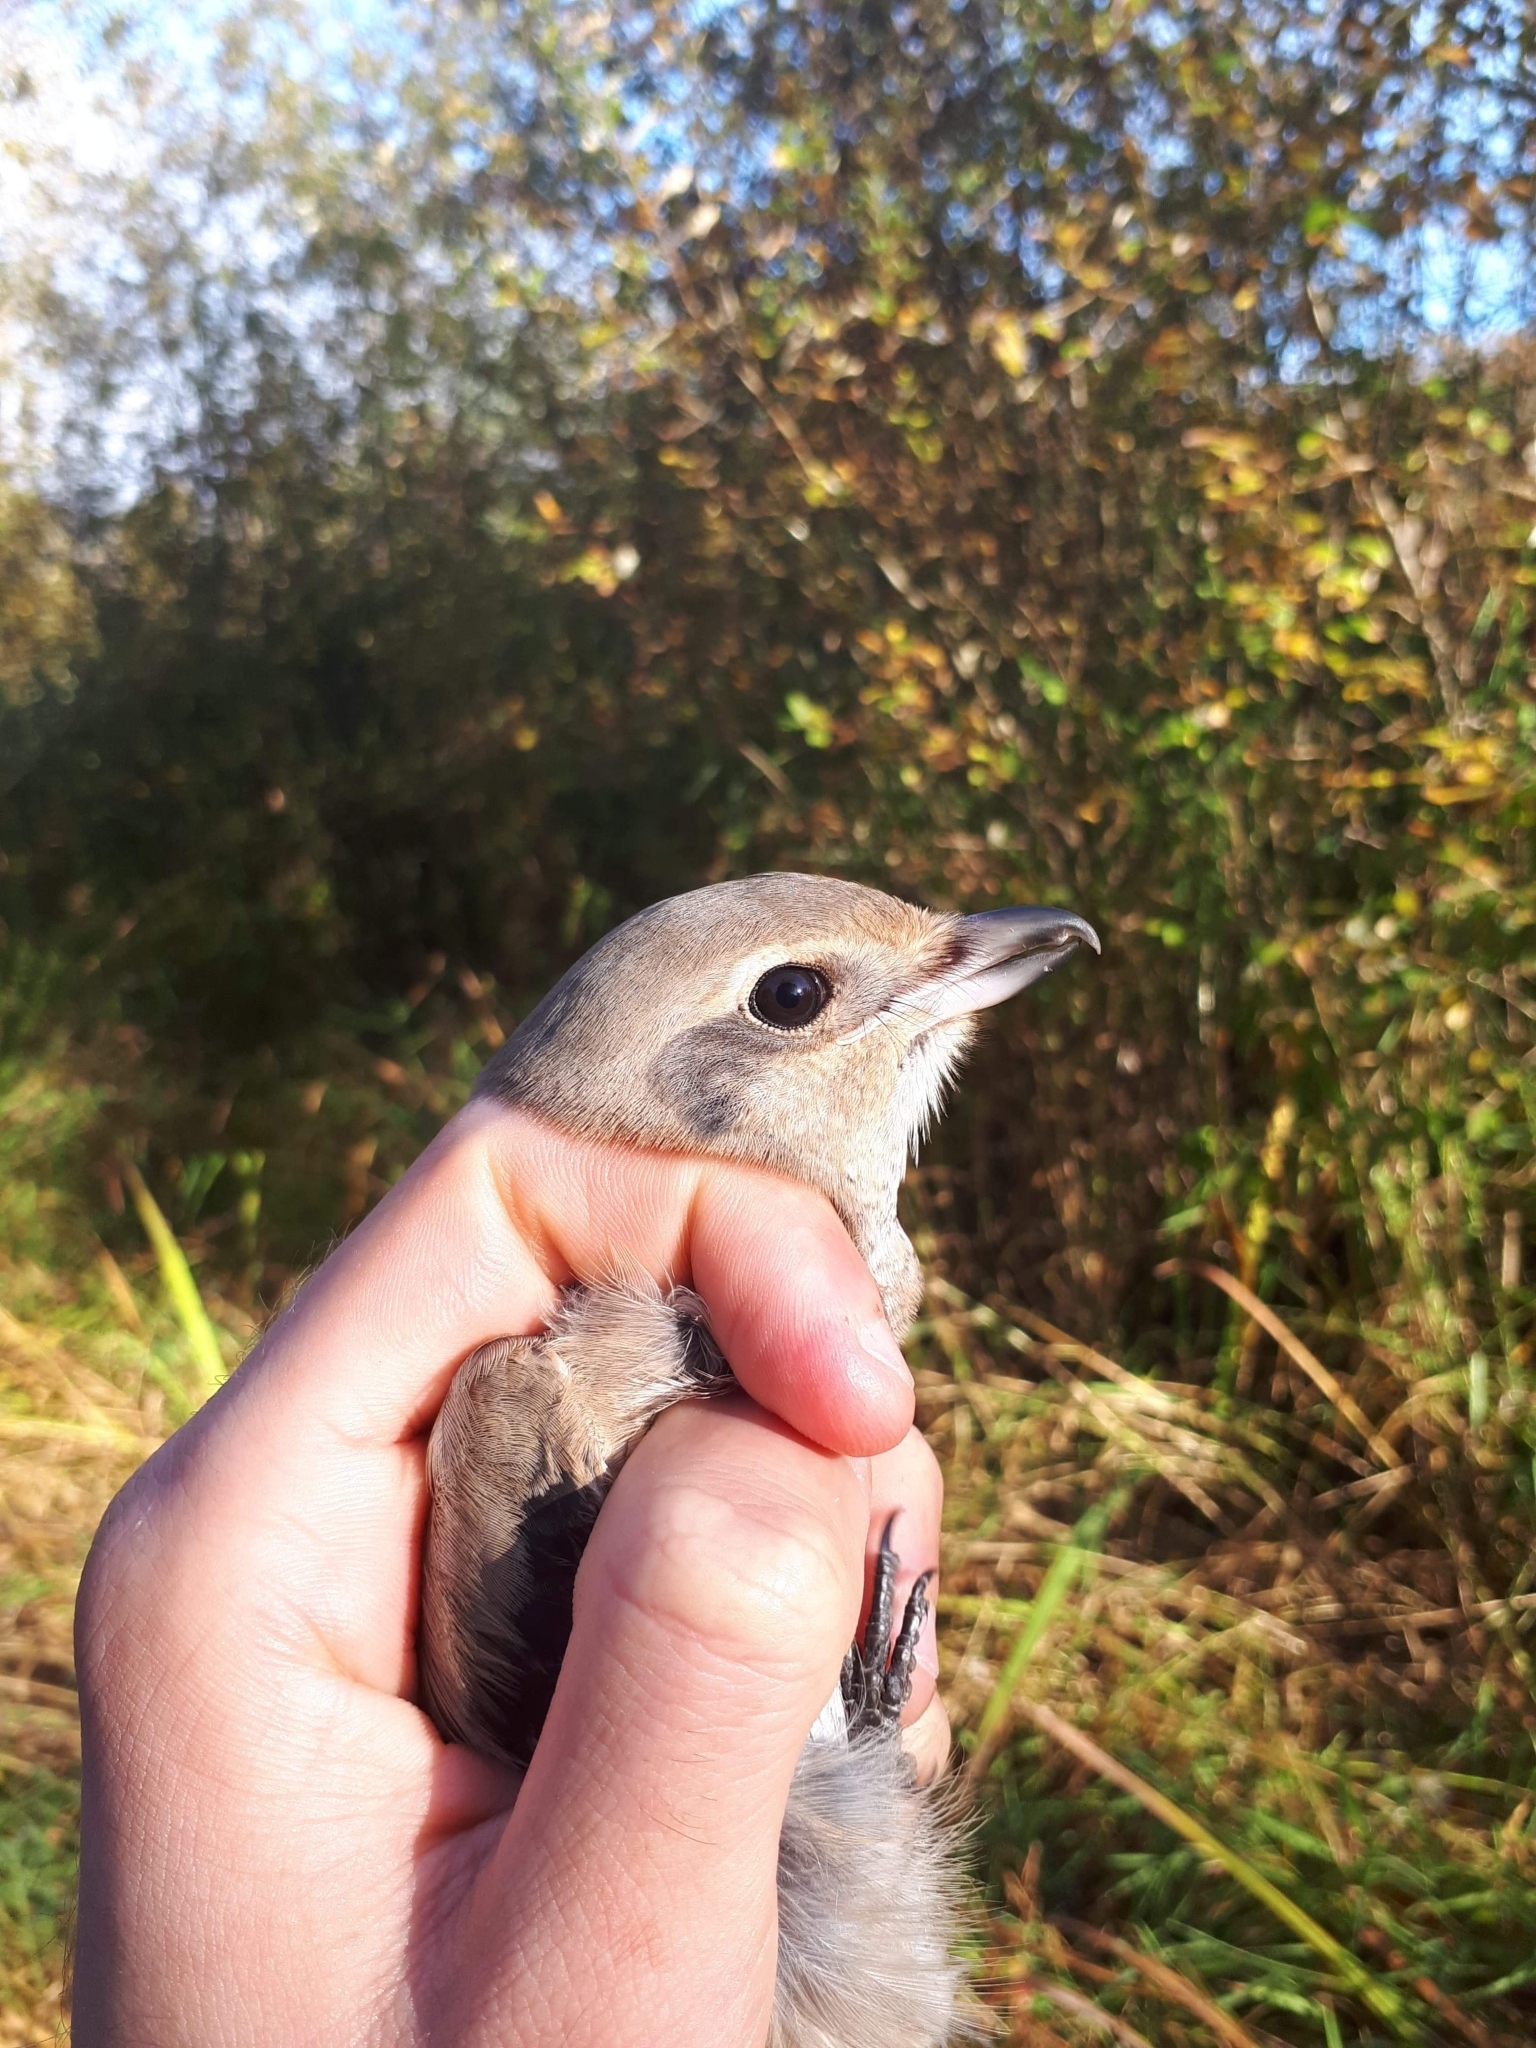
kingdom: Animalia
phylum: Chordata
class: Aves
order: Passeriformes
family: Laniidae
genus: Lanius
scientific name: Lanius borealis
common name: Northern shrike
